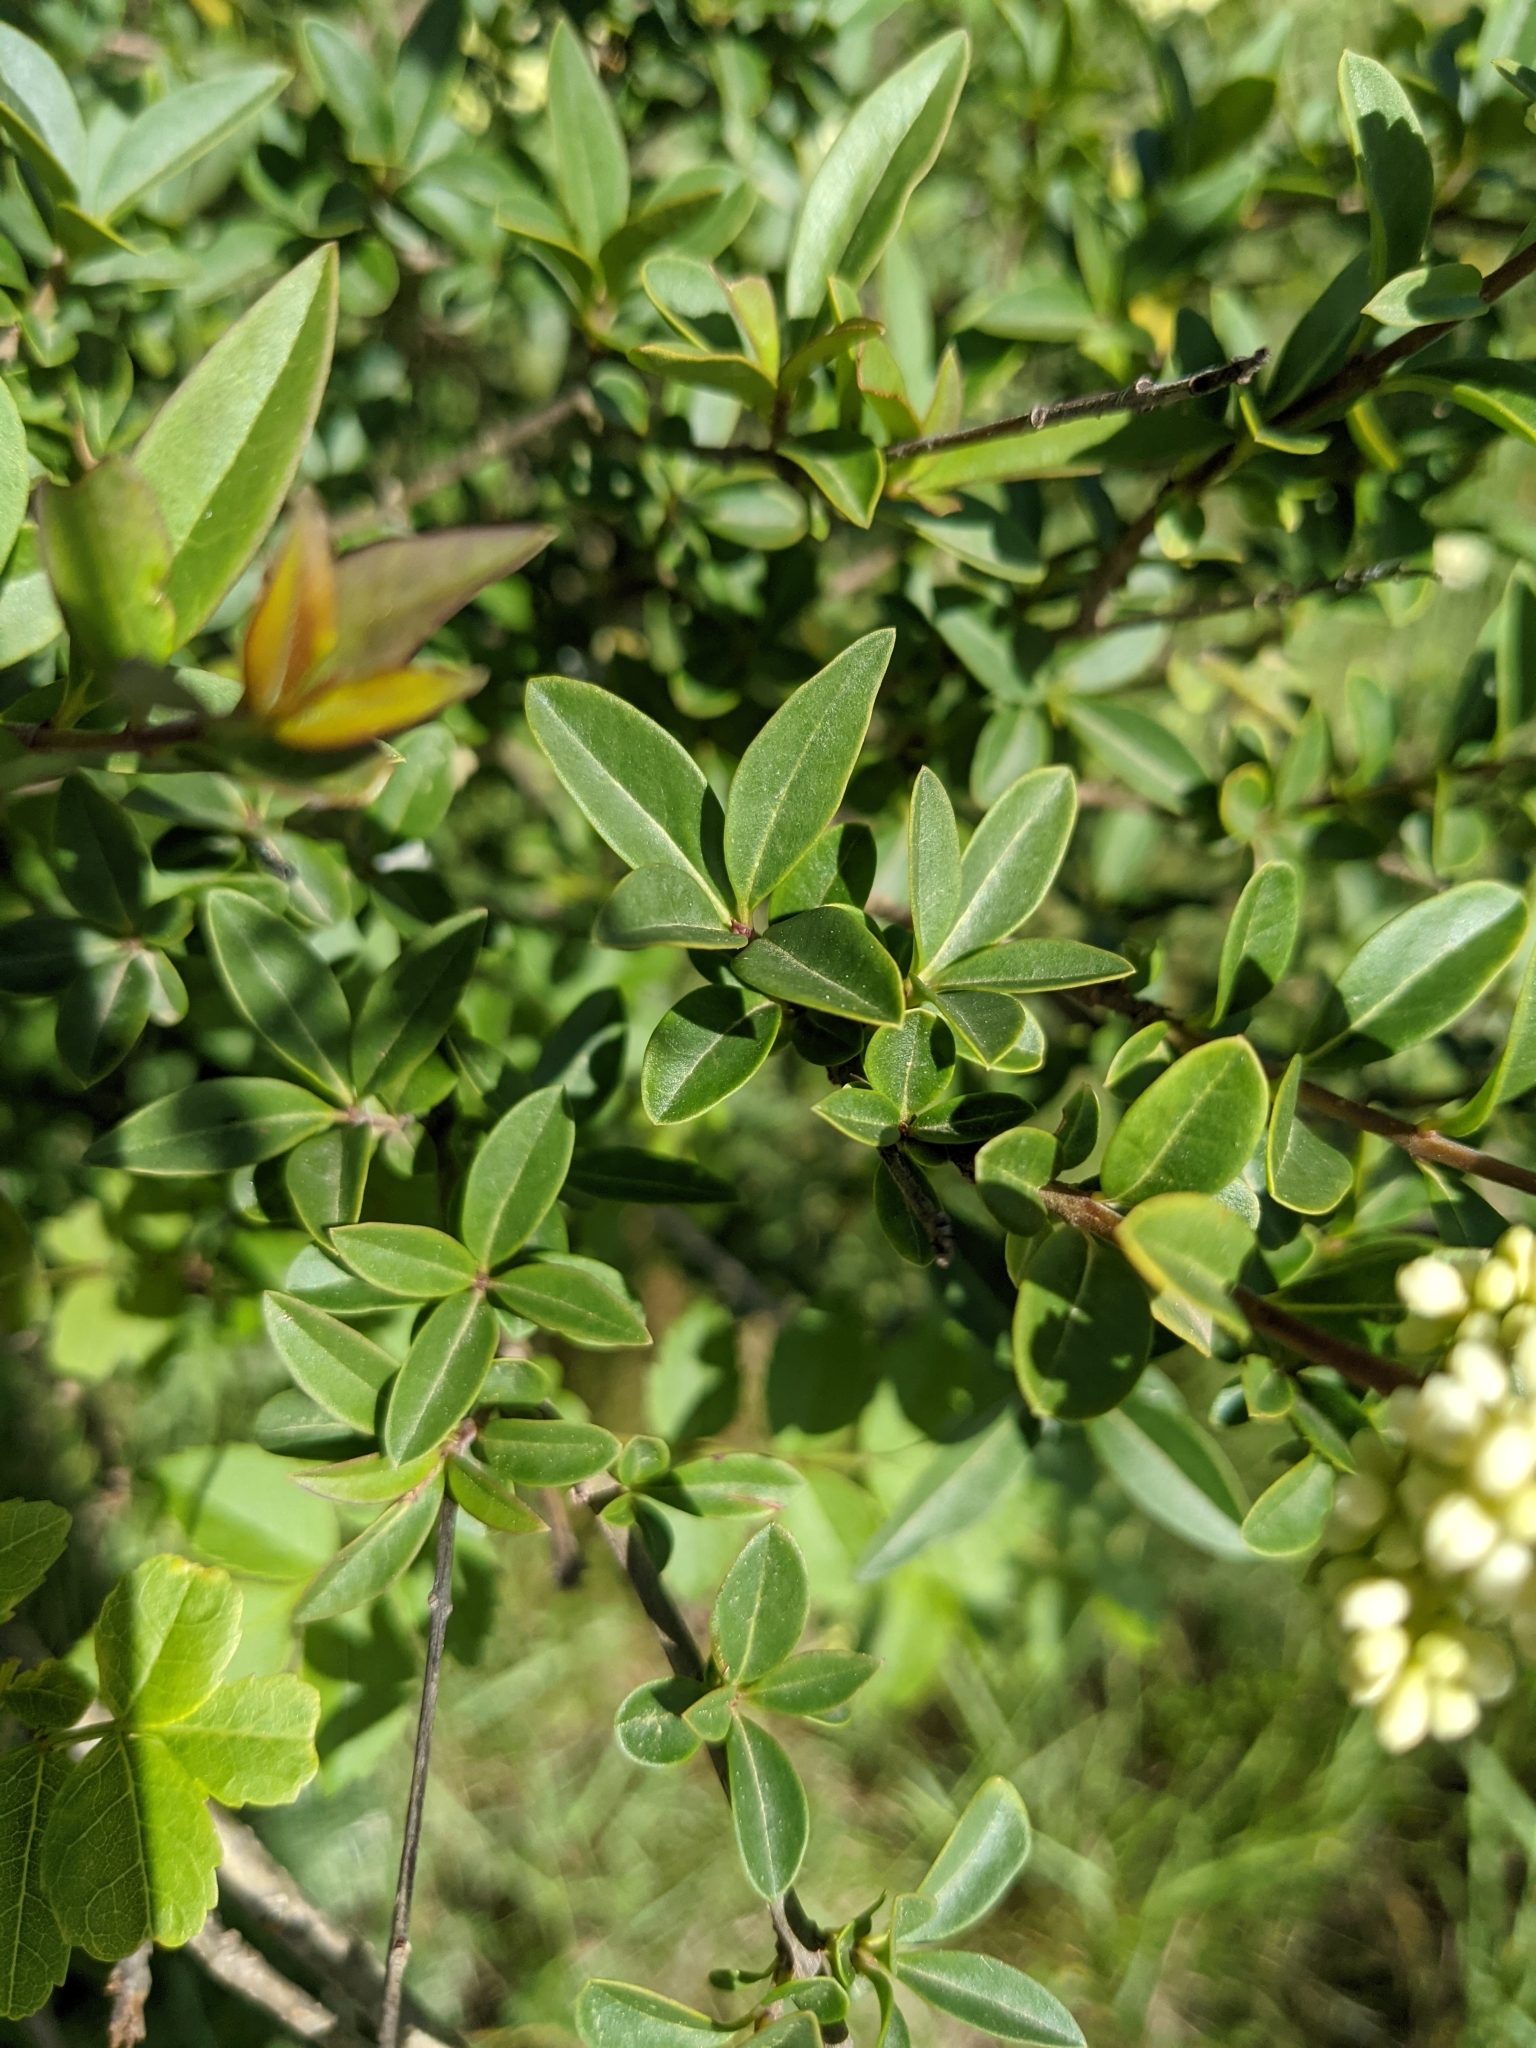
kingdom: Plantae
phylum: Tracheophyta
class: Magnoliopsida
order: Lamiales
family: Oleaceae
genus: Ligustrum
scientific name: Ligustrum vulgare
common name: Wild privet
